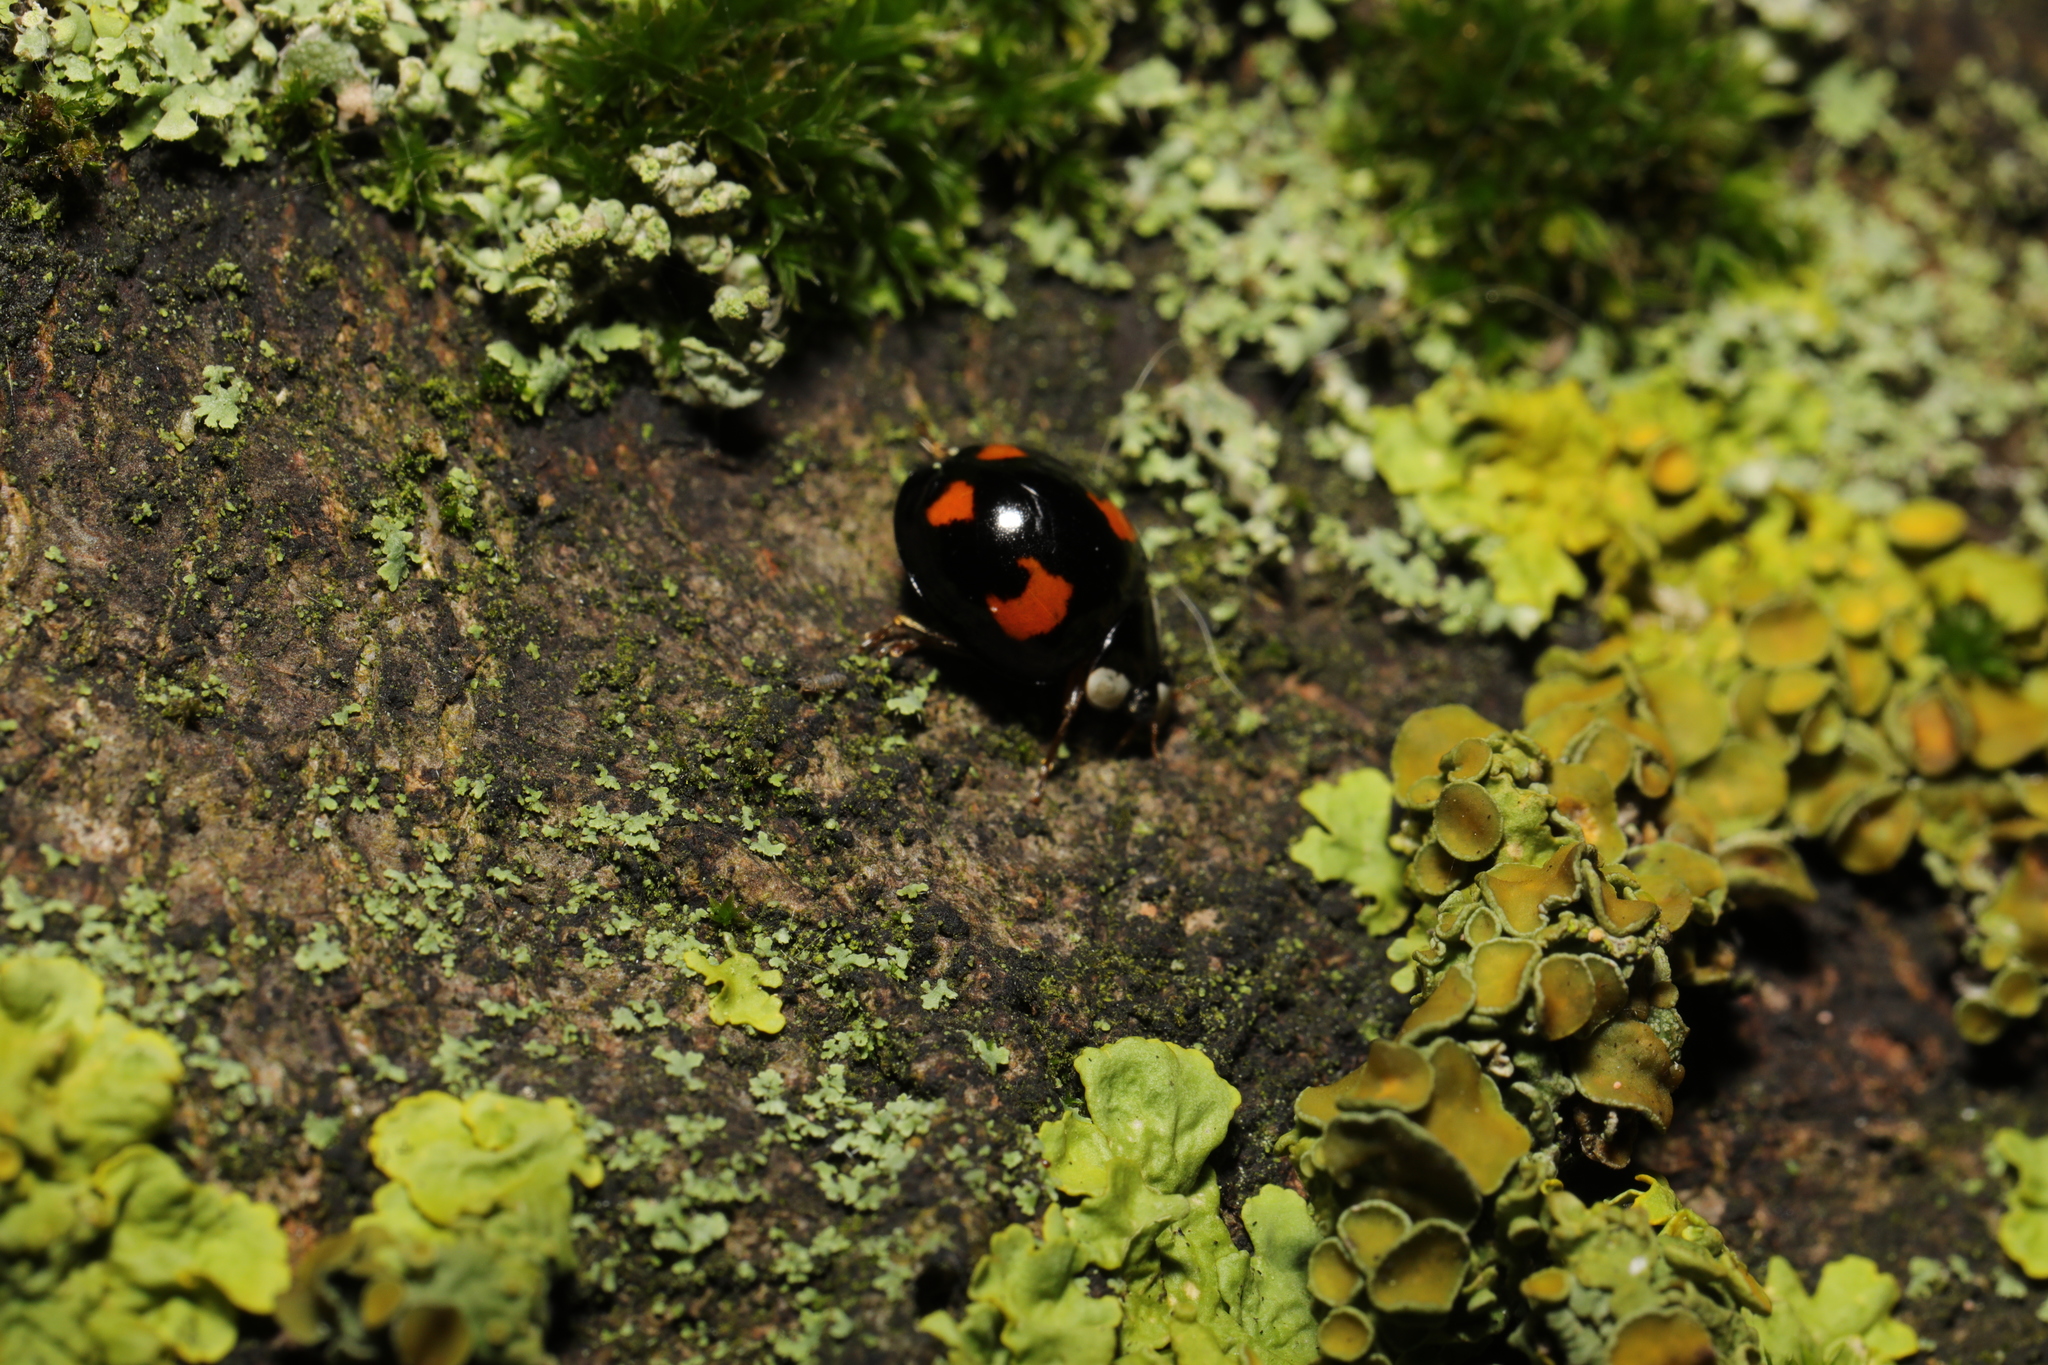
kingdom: Animalia
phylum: Arthropoda
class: Insecta
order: Coleoptera
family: Coccinellidae
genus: Harmonia
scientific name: Harmonia axyridis
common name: Harlequin ladybird
